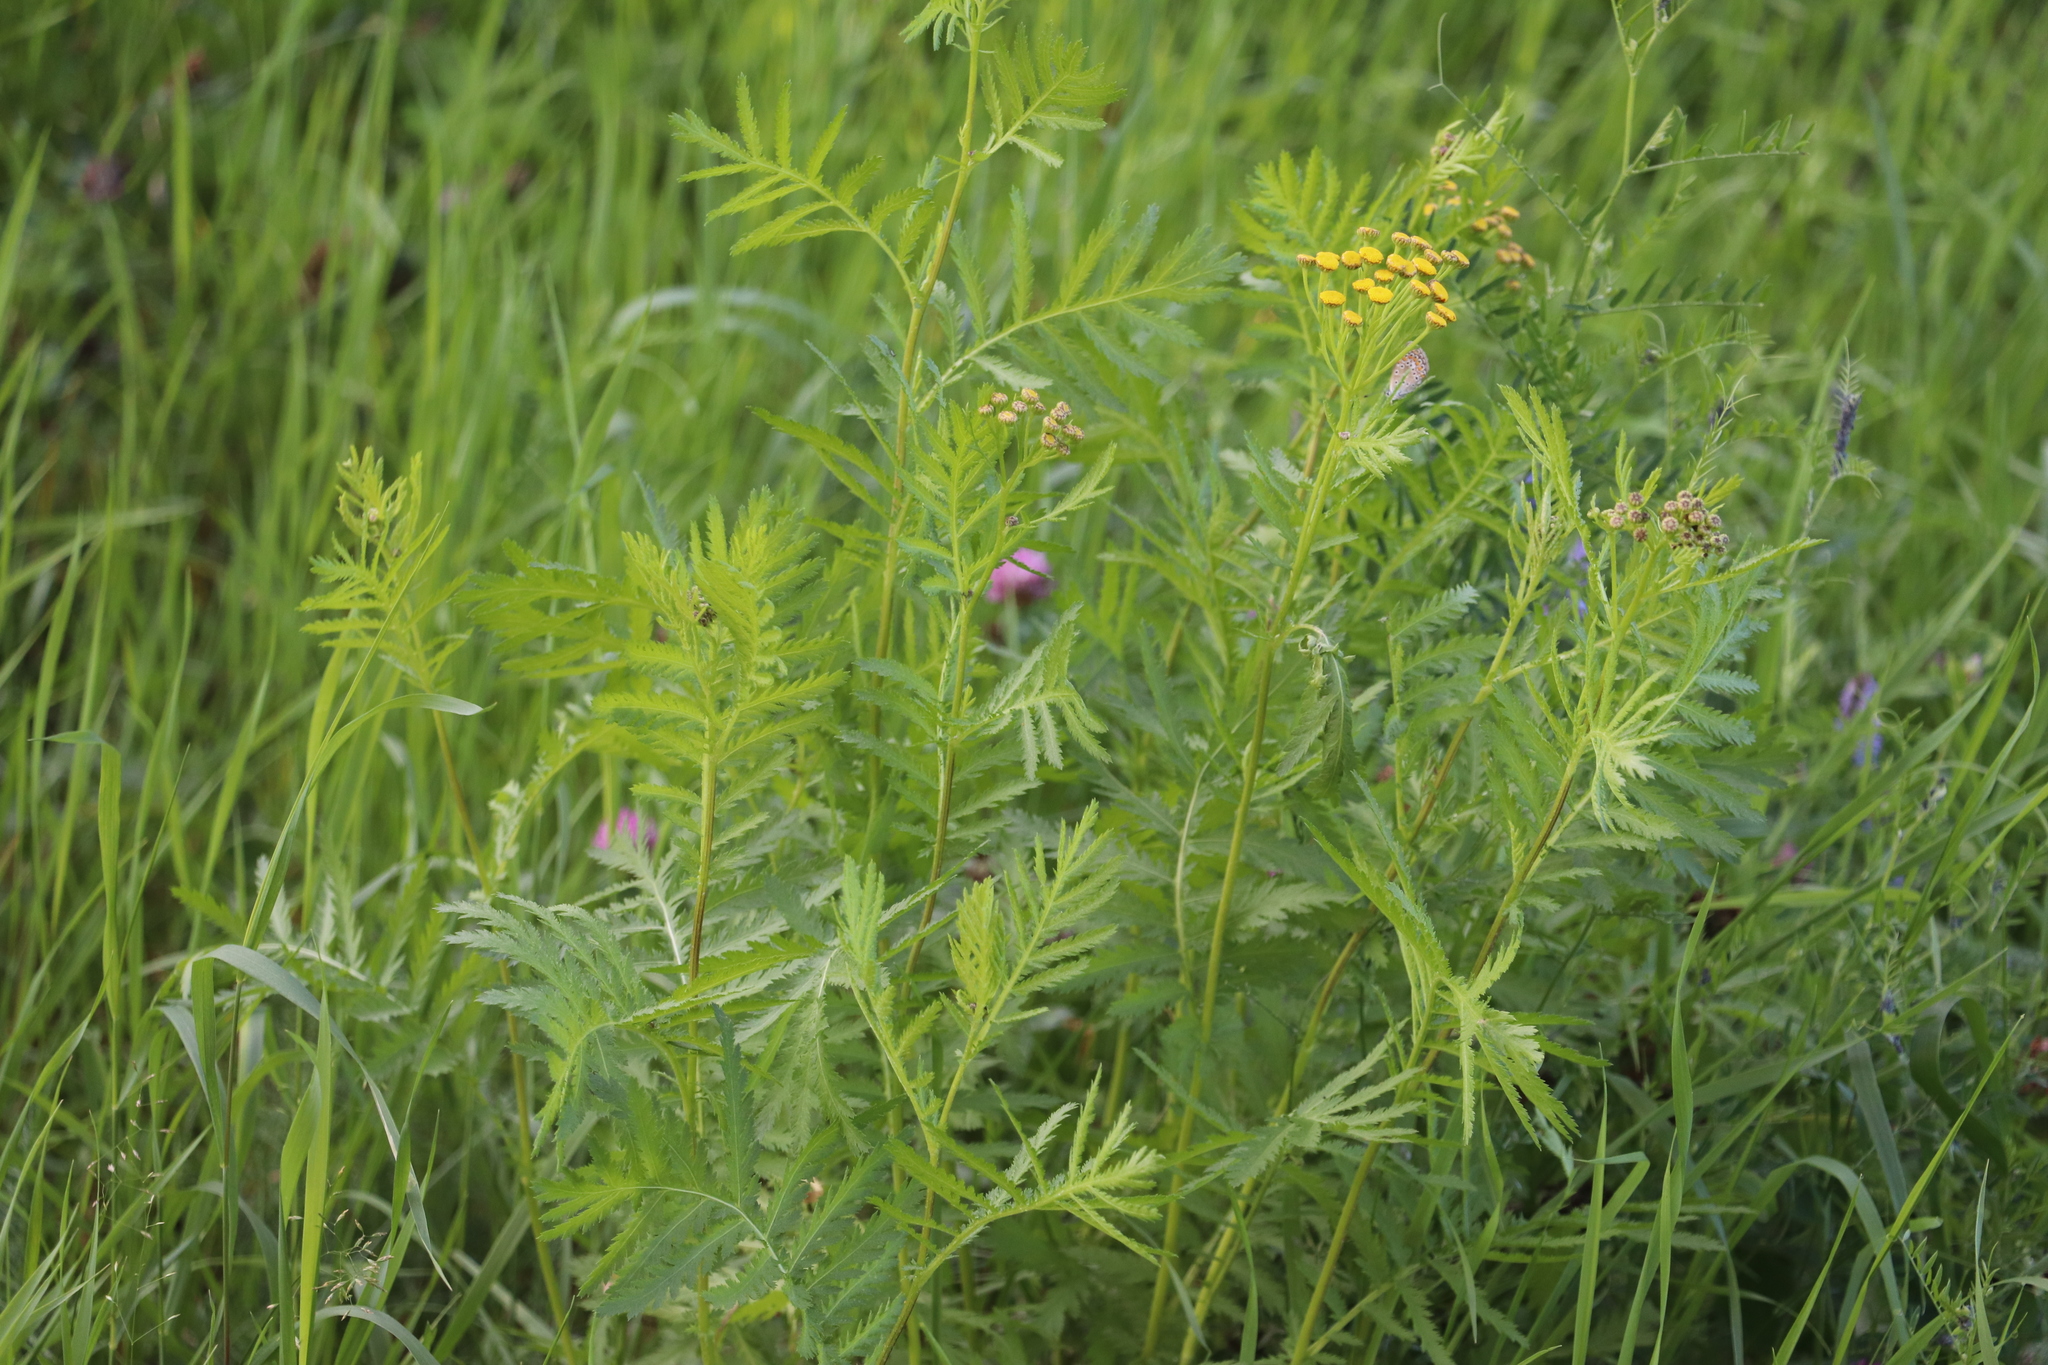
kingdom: Plantae
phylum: Tracheophyta
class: Magnoliopsida
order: Asterales
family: Asteraceae
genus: Tanacetum
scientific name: Tanacetum vulgare
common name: Common tansy
